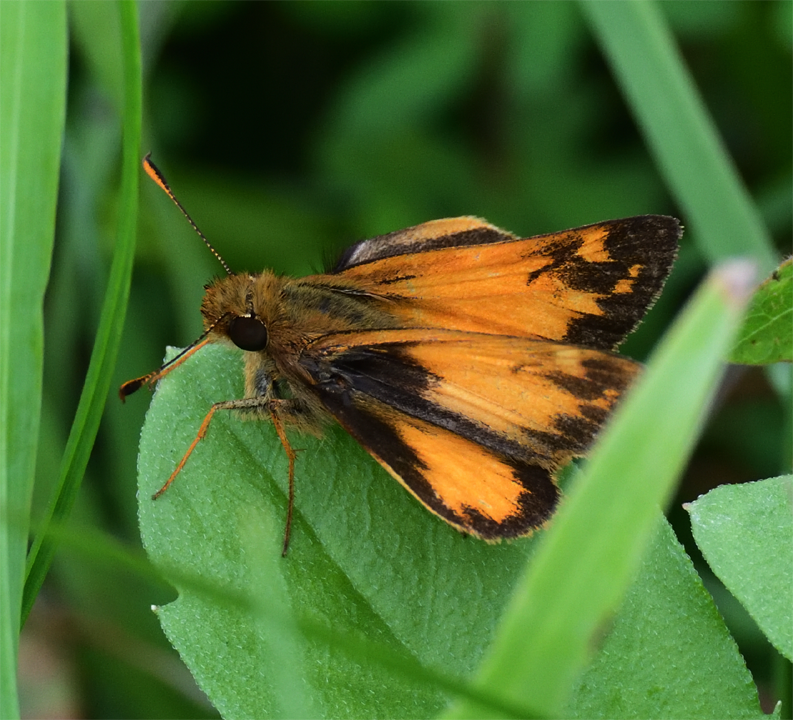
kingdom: Animalia
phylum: Arthropoda
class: Insecta
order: Lepidoptera
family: Hesperiidae
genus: Lon
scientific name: Lon zabulon
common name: Zabulon skipper
